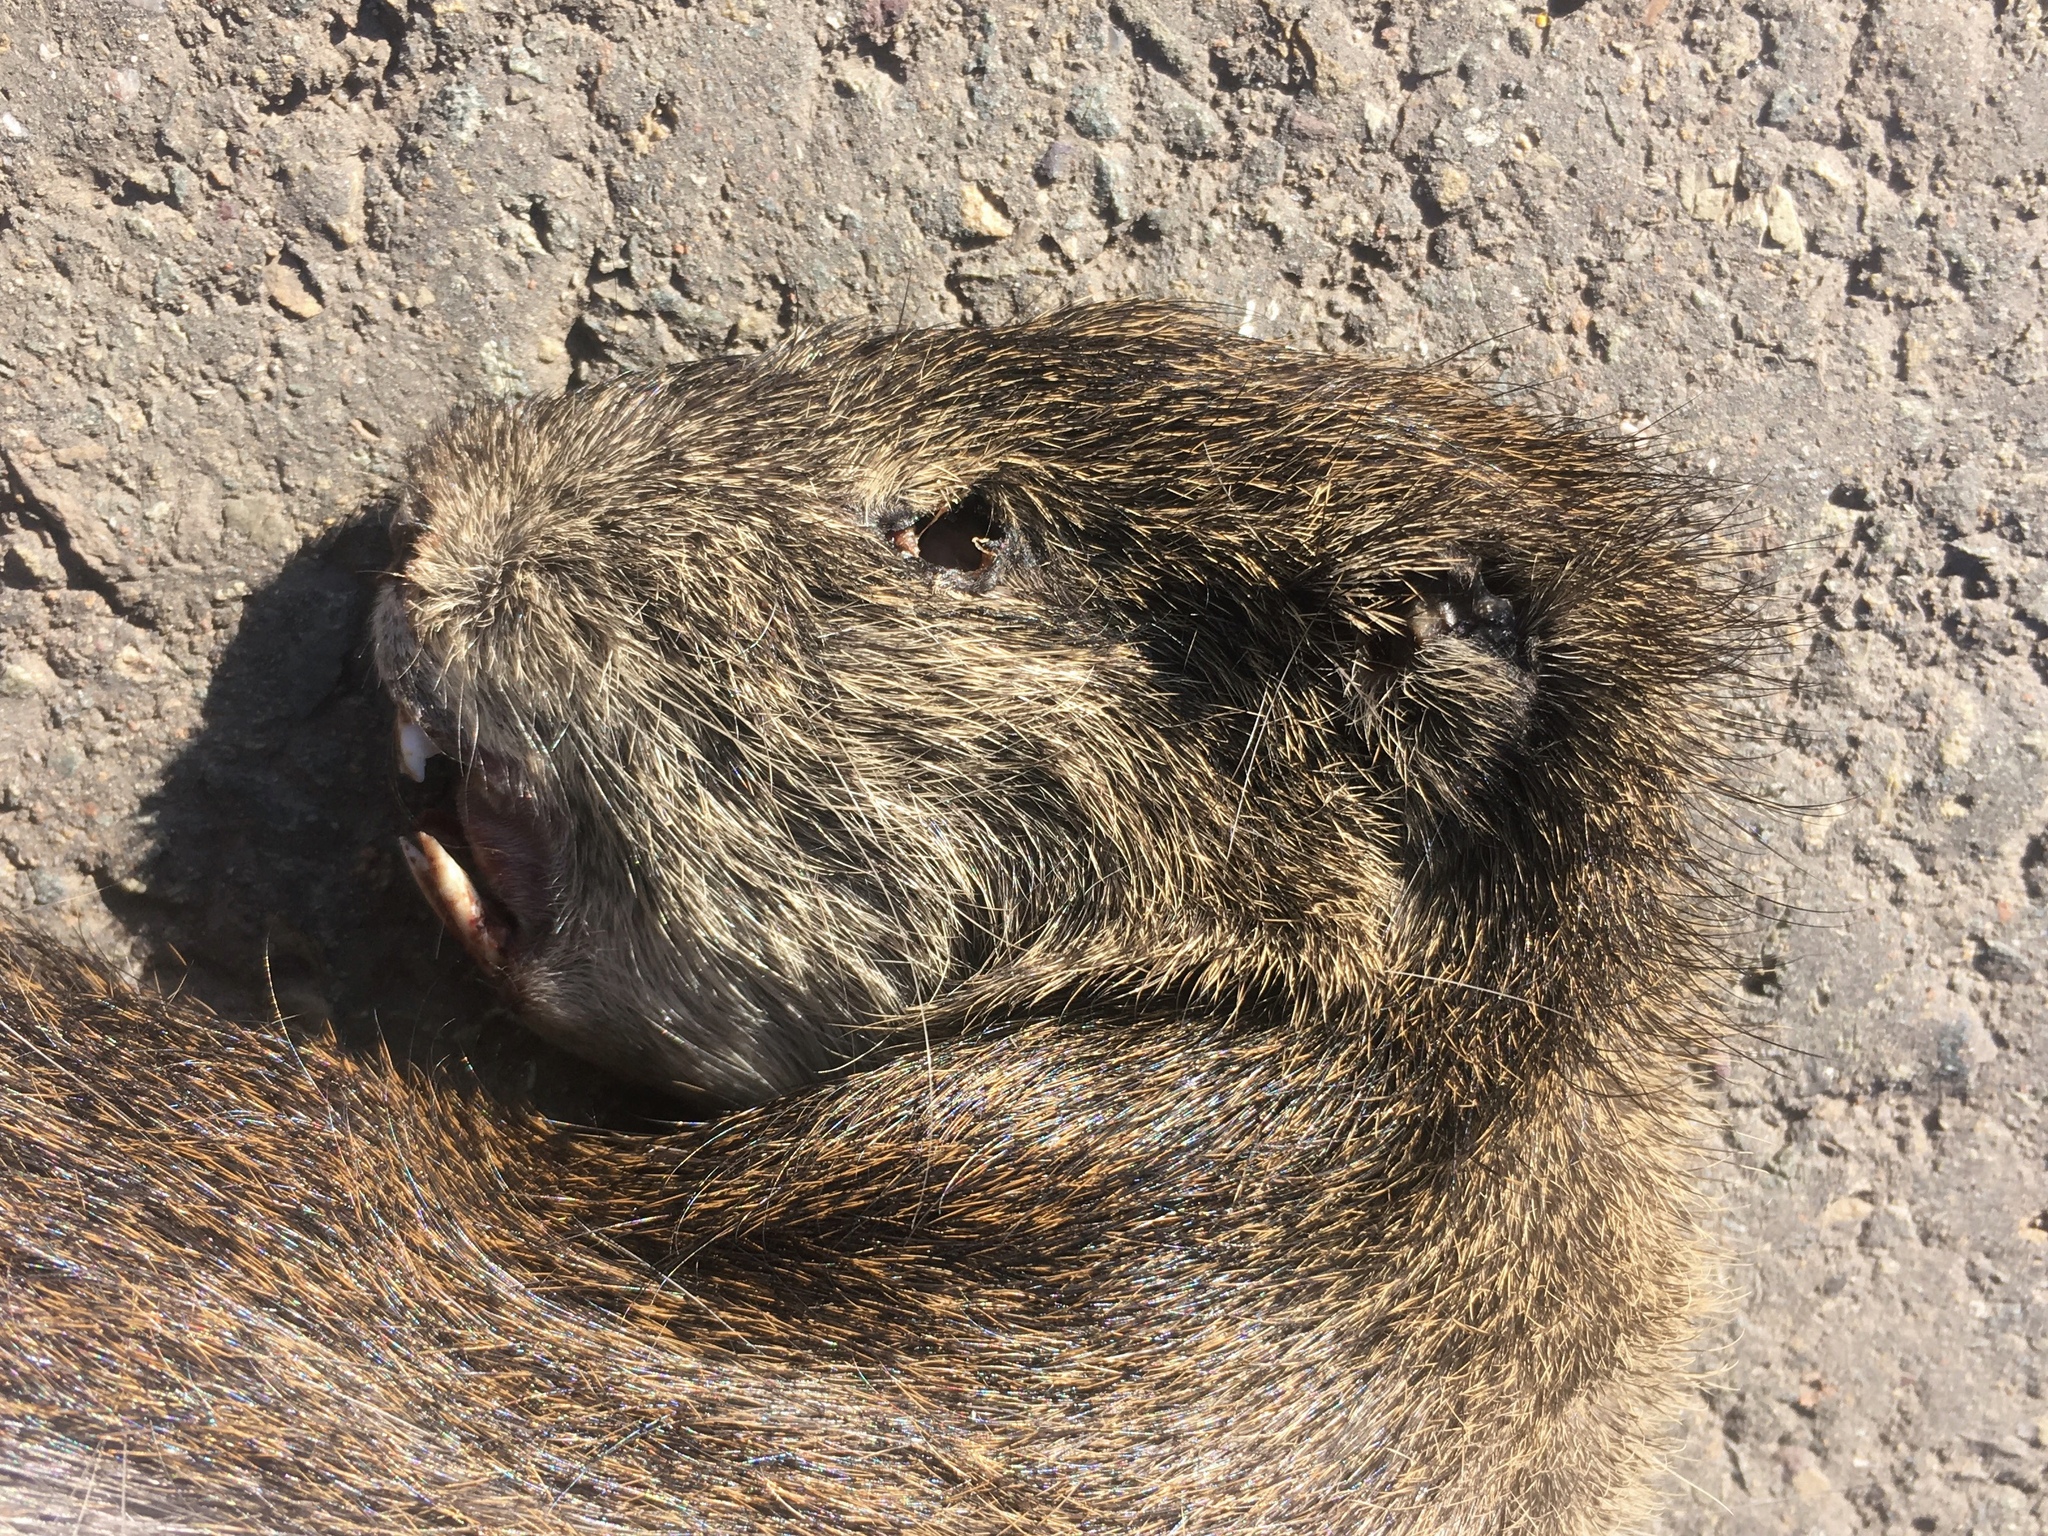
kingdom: Animalia
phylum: Chordata
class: Mammalia
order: Rodentia
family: Caviidae
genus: Cavia
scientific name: Cavia aperea
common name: Brazilian guinea pig
